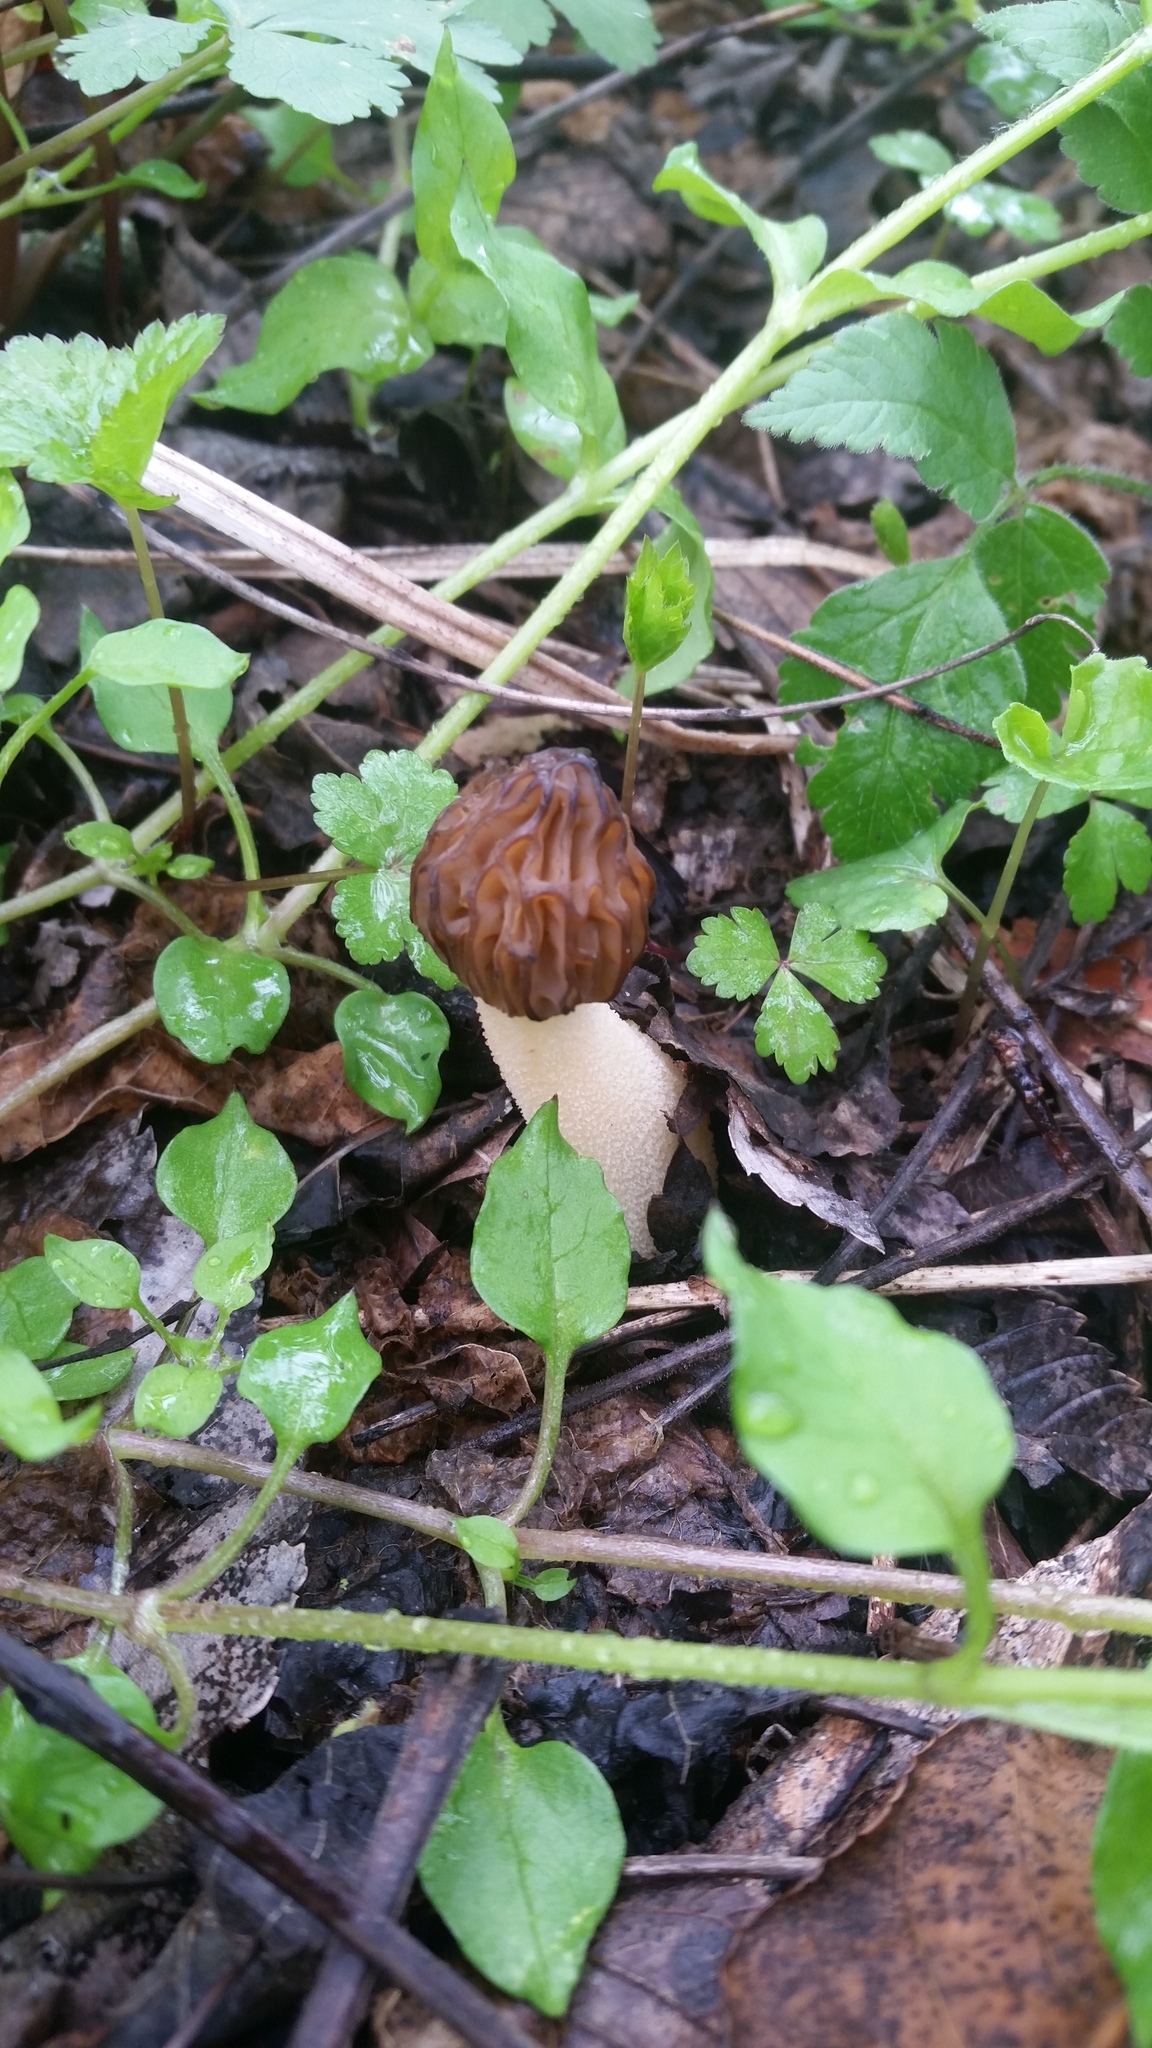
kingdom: Fungi
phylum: Ascomycota
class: Pezizomycetes
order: Pezizales
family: Morchellaceae
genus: Morchella
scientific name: Morchella punctipes
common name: Half-free morel
